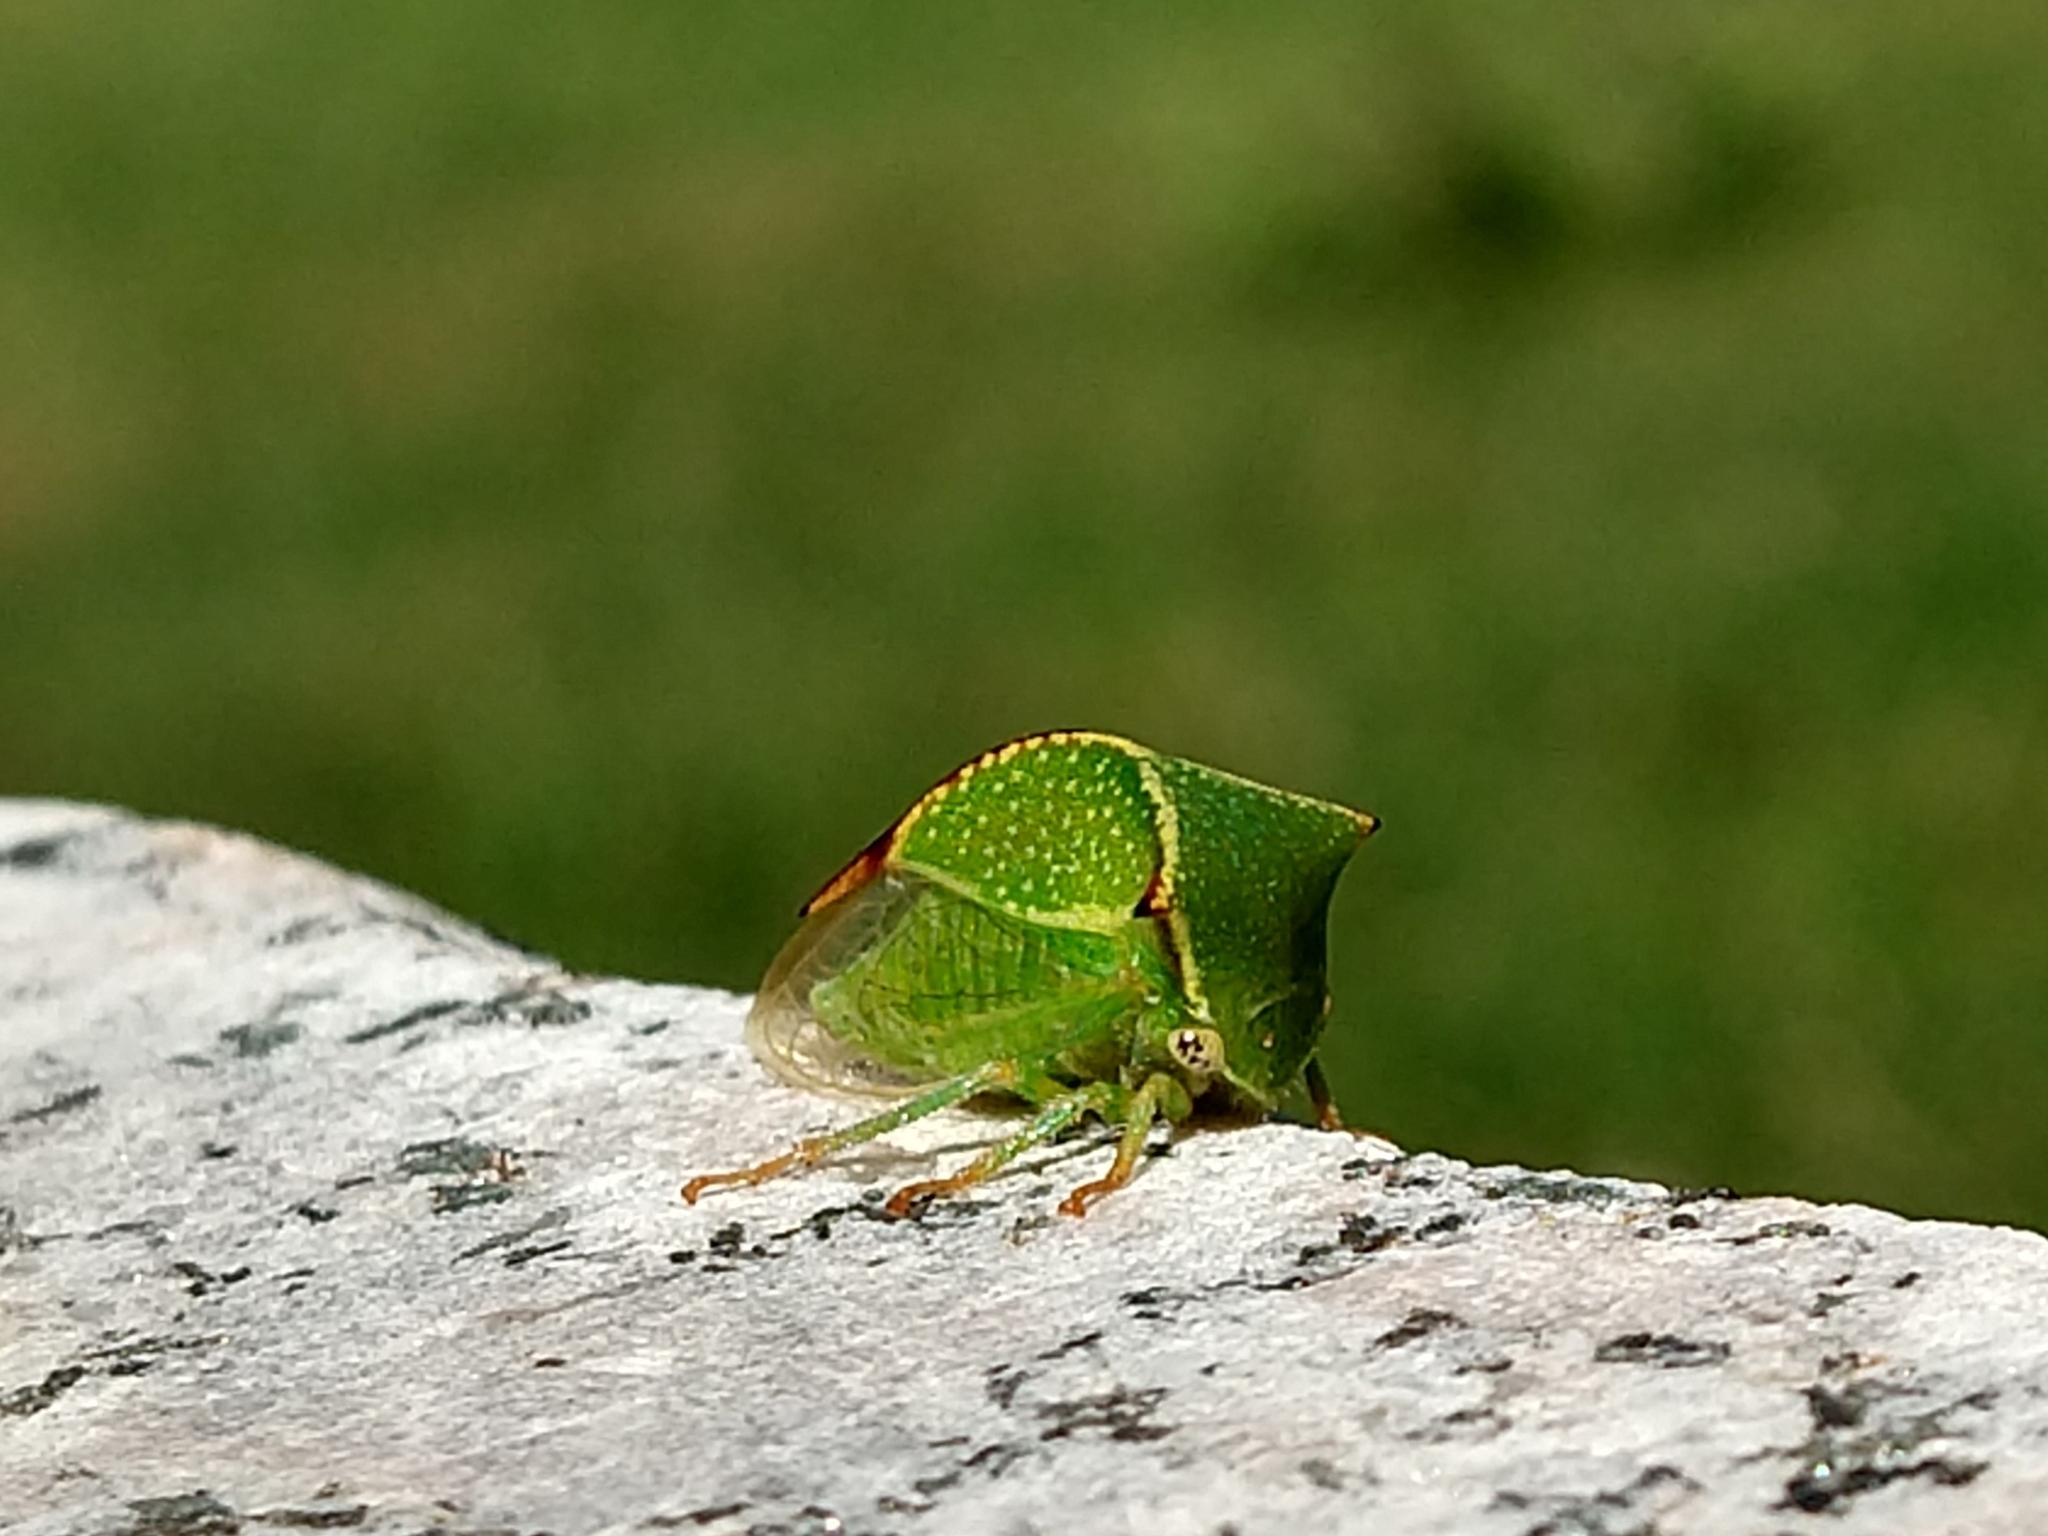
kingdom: Animalia
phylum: Arthropoda
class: Insecta
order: Hemiptera
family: Membracidae
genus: Stictocephala
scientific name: Stictocephala bisonia
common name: American buffalo treehopper
